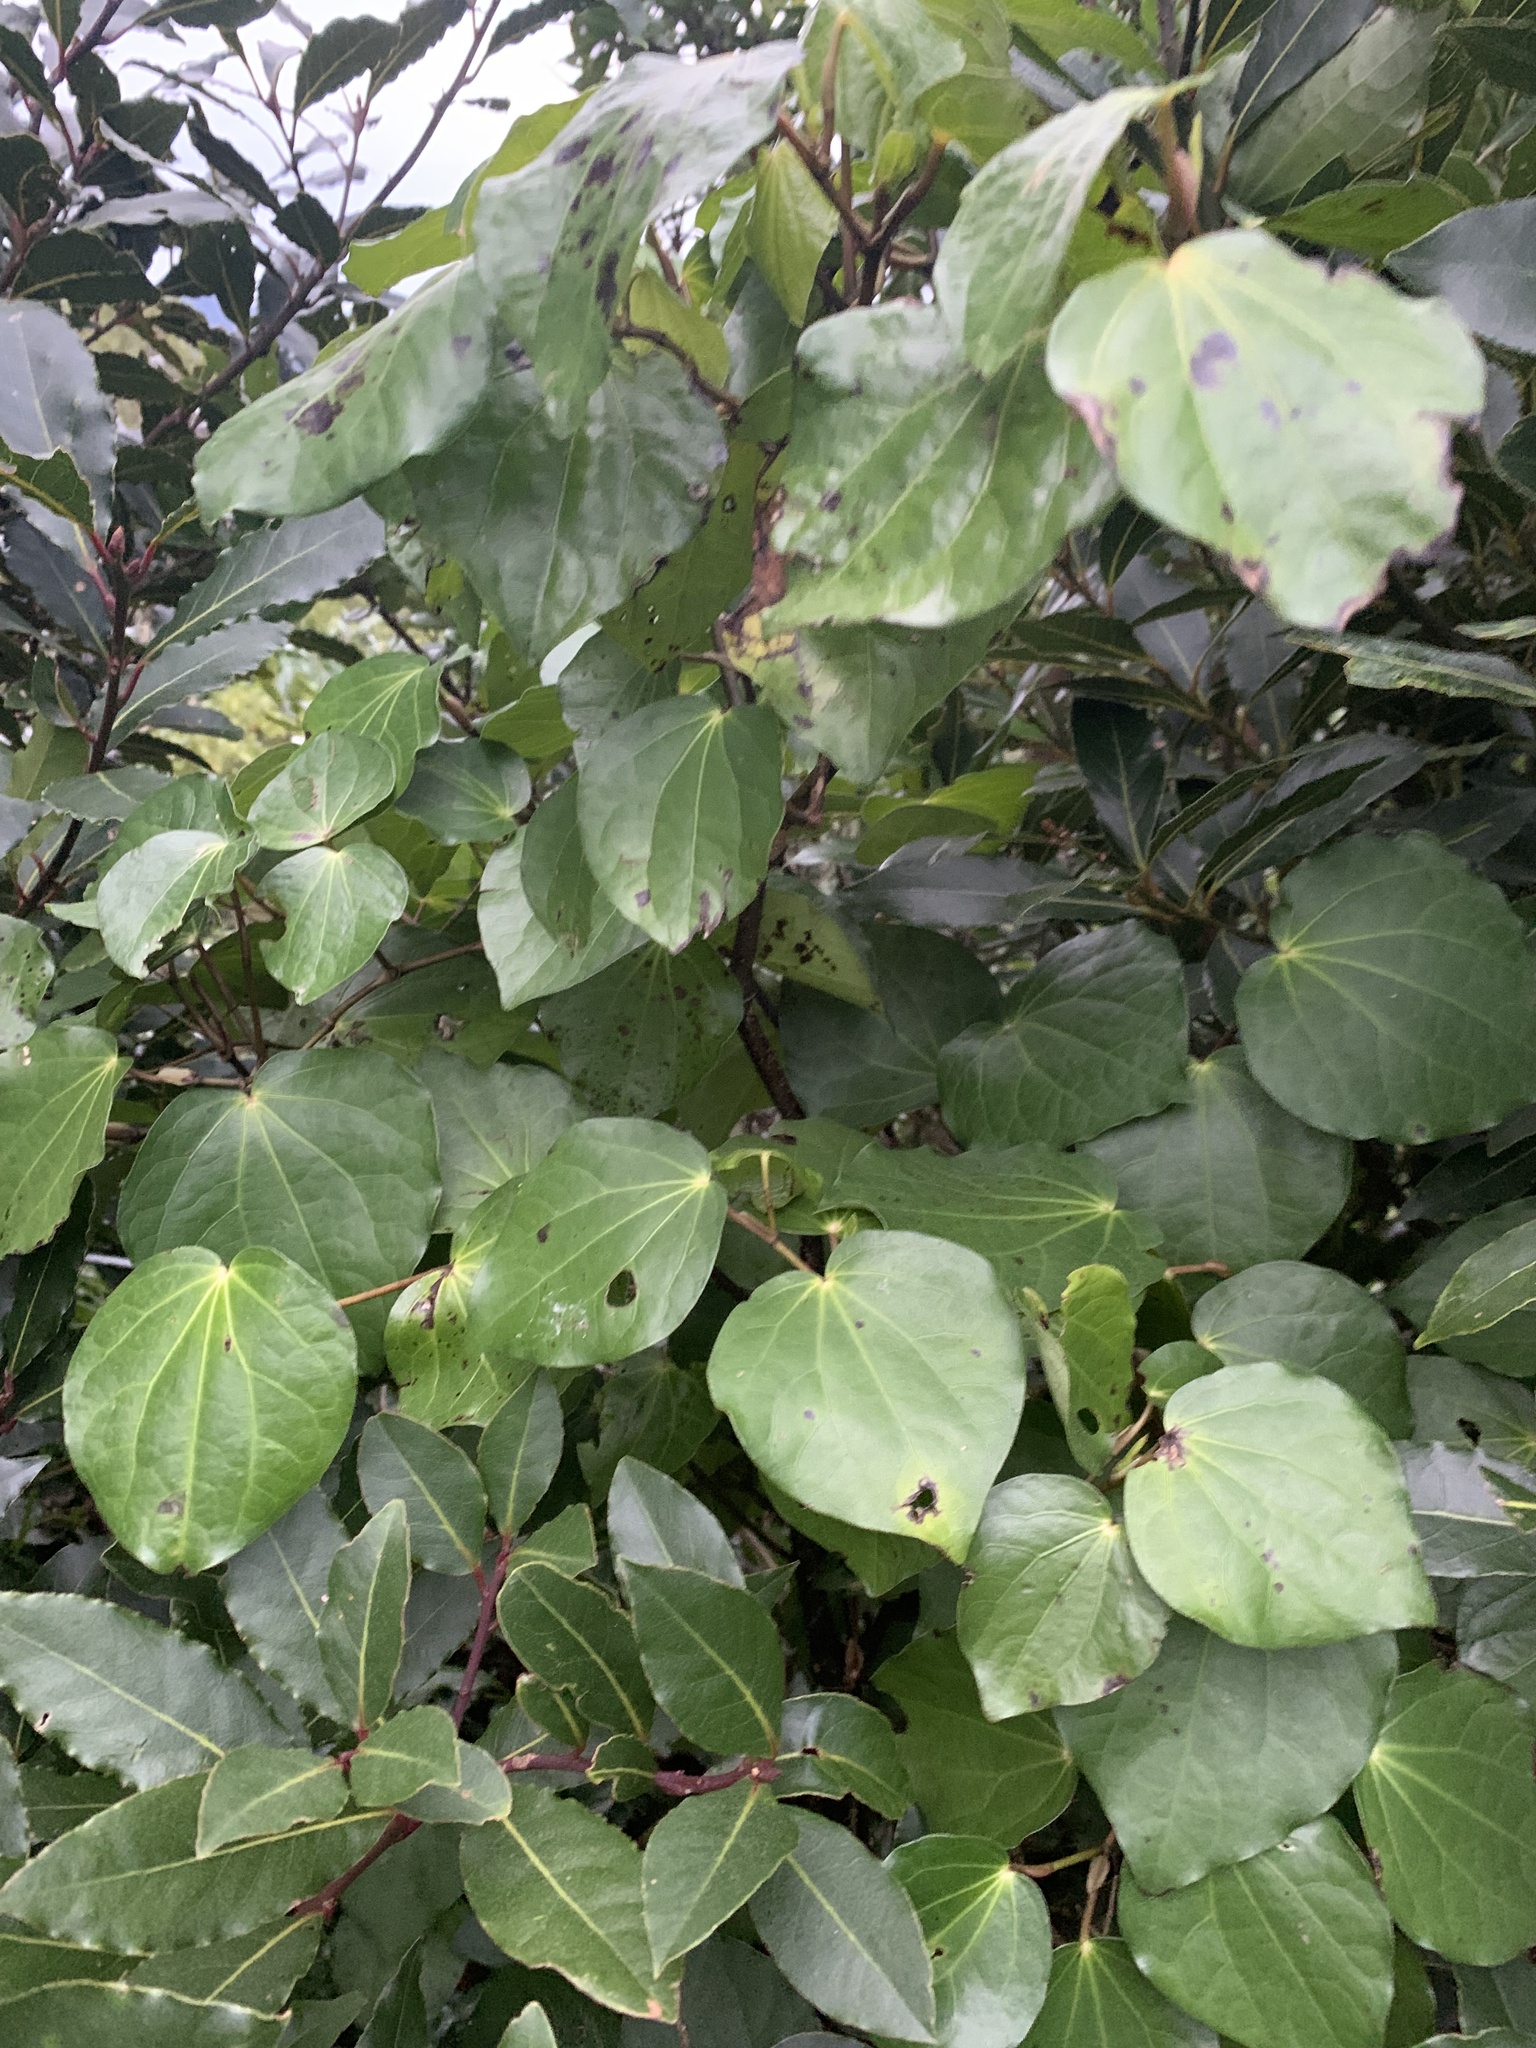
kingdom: Plantae
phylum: Tracheophyta
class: Magnoliopsida
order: Piperales
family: Piperaceae
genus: Macropiper
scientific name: Macropiper excelsum
